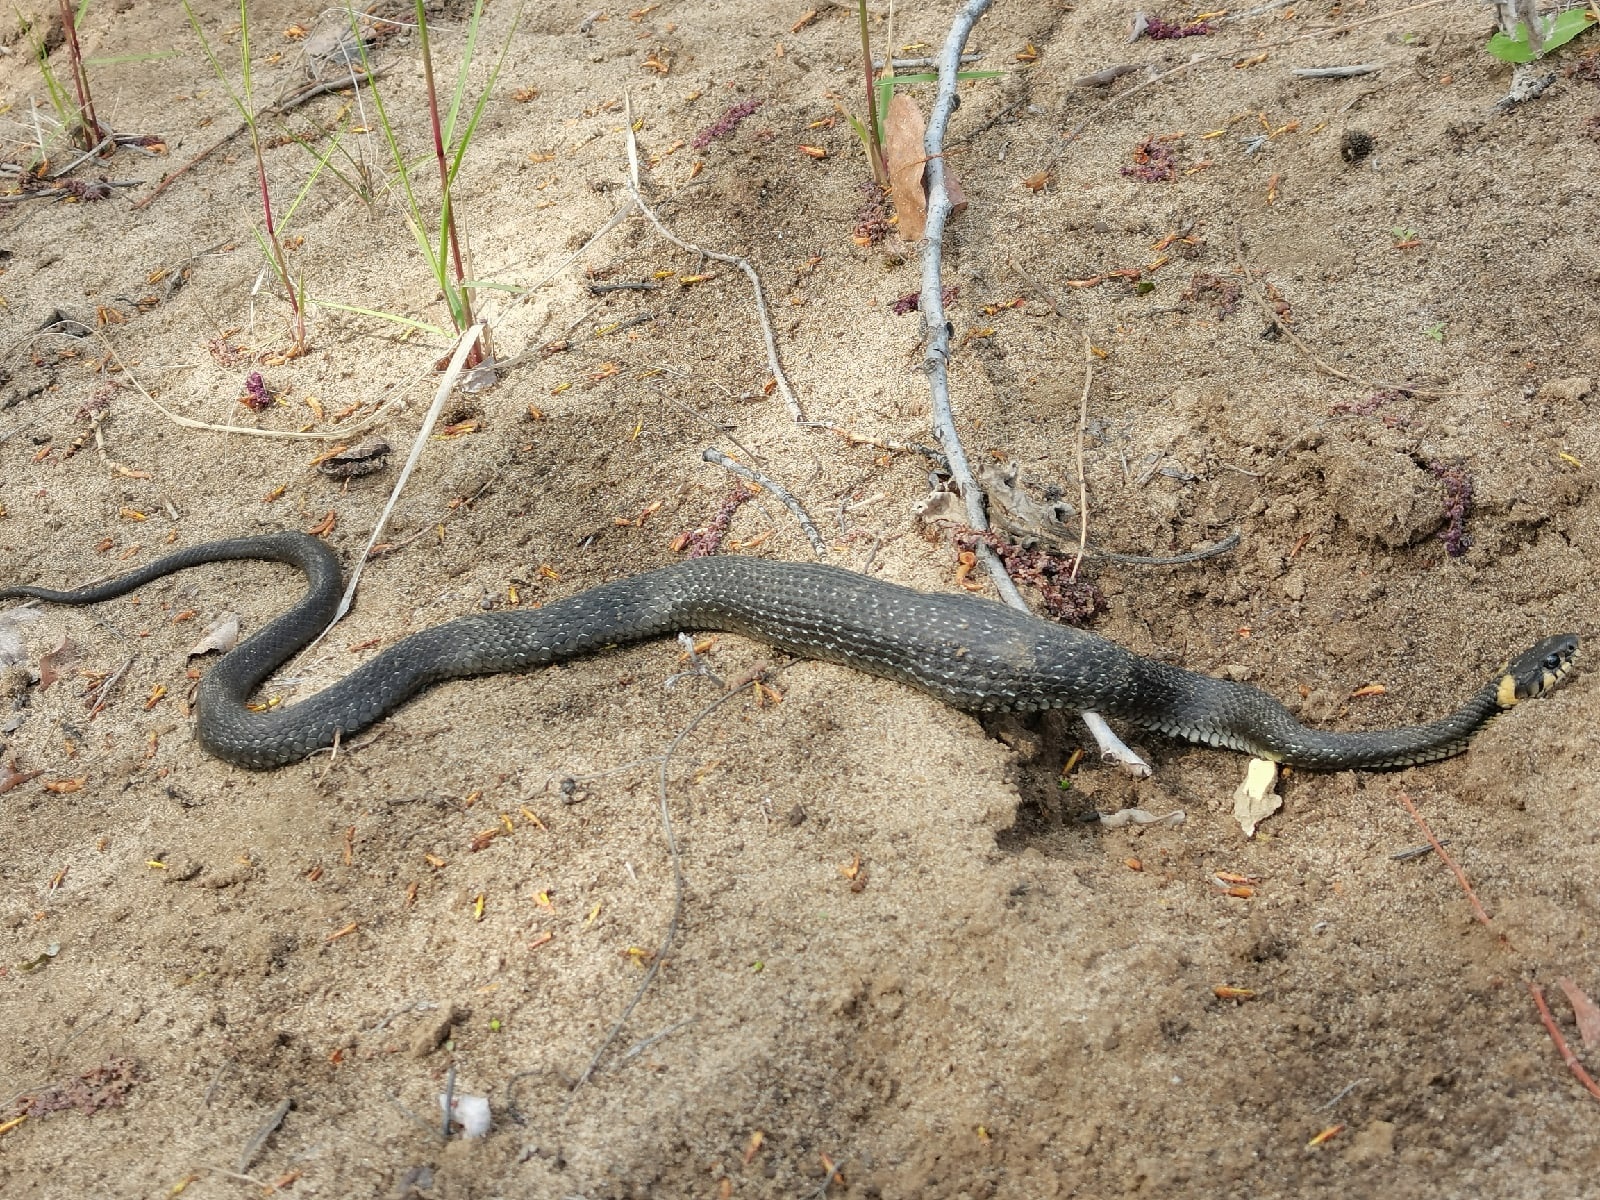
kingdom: Animalia
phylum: Chordata
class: Squamata
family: Colubridae
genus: Natrix
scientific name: Natrix natrix
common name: Grass snake
